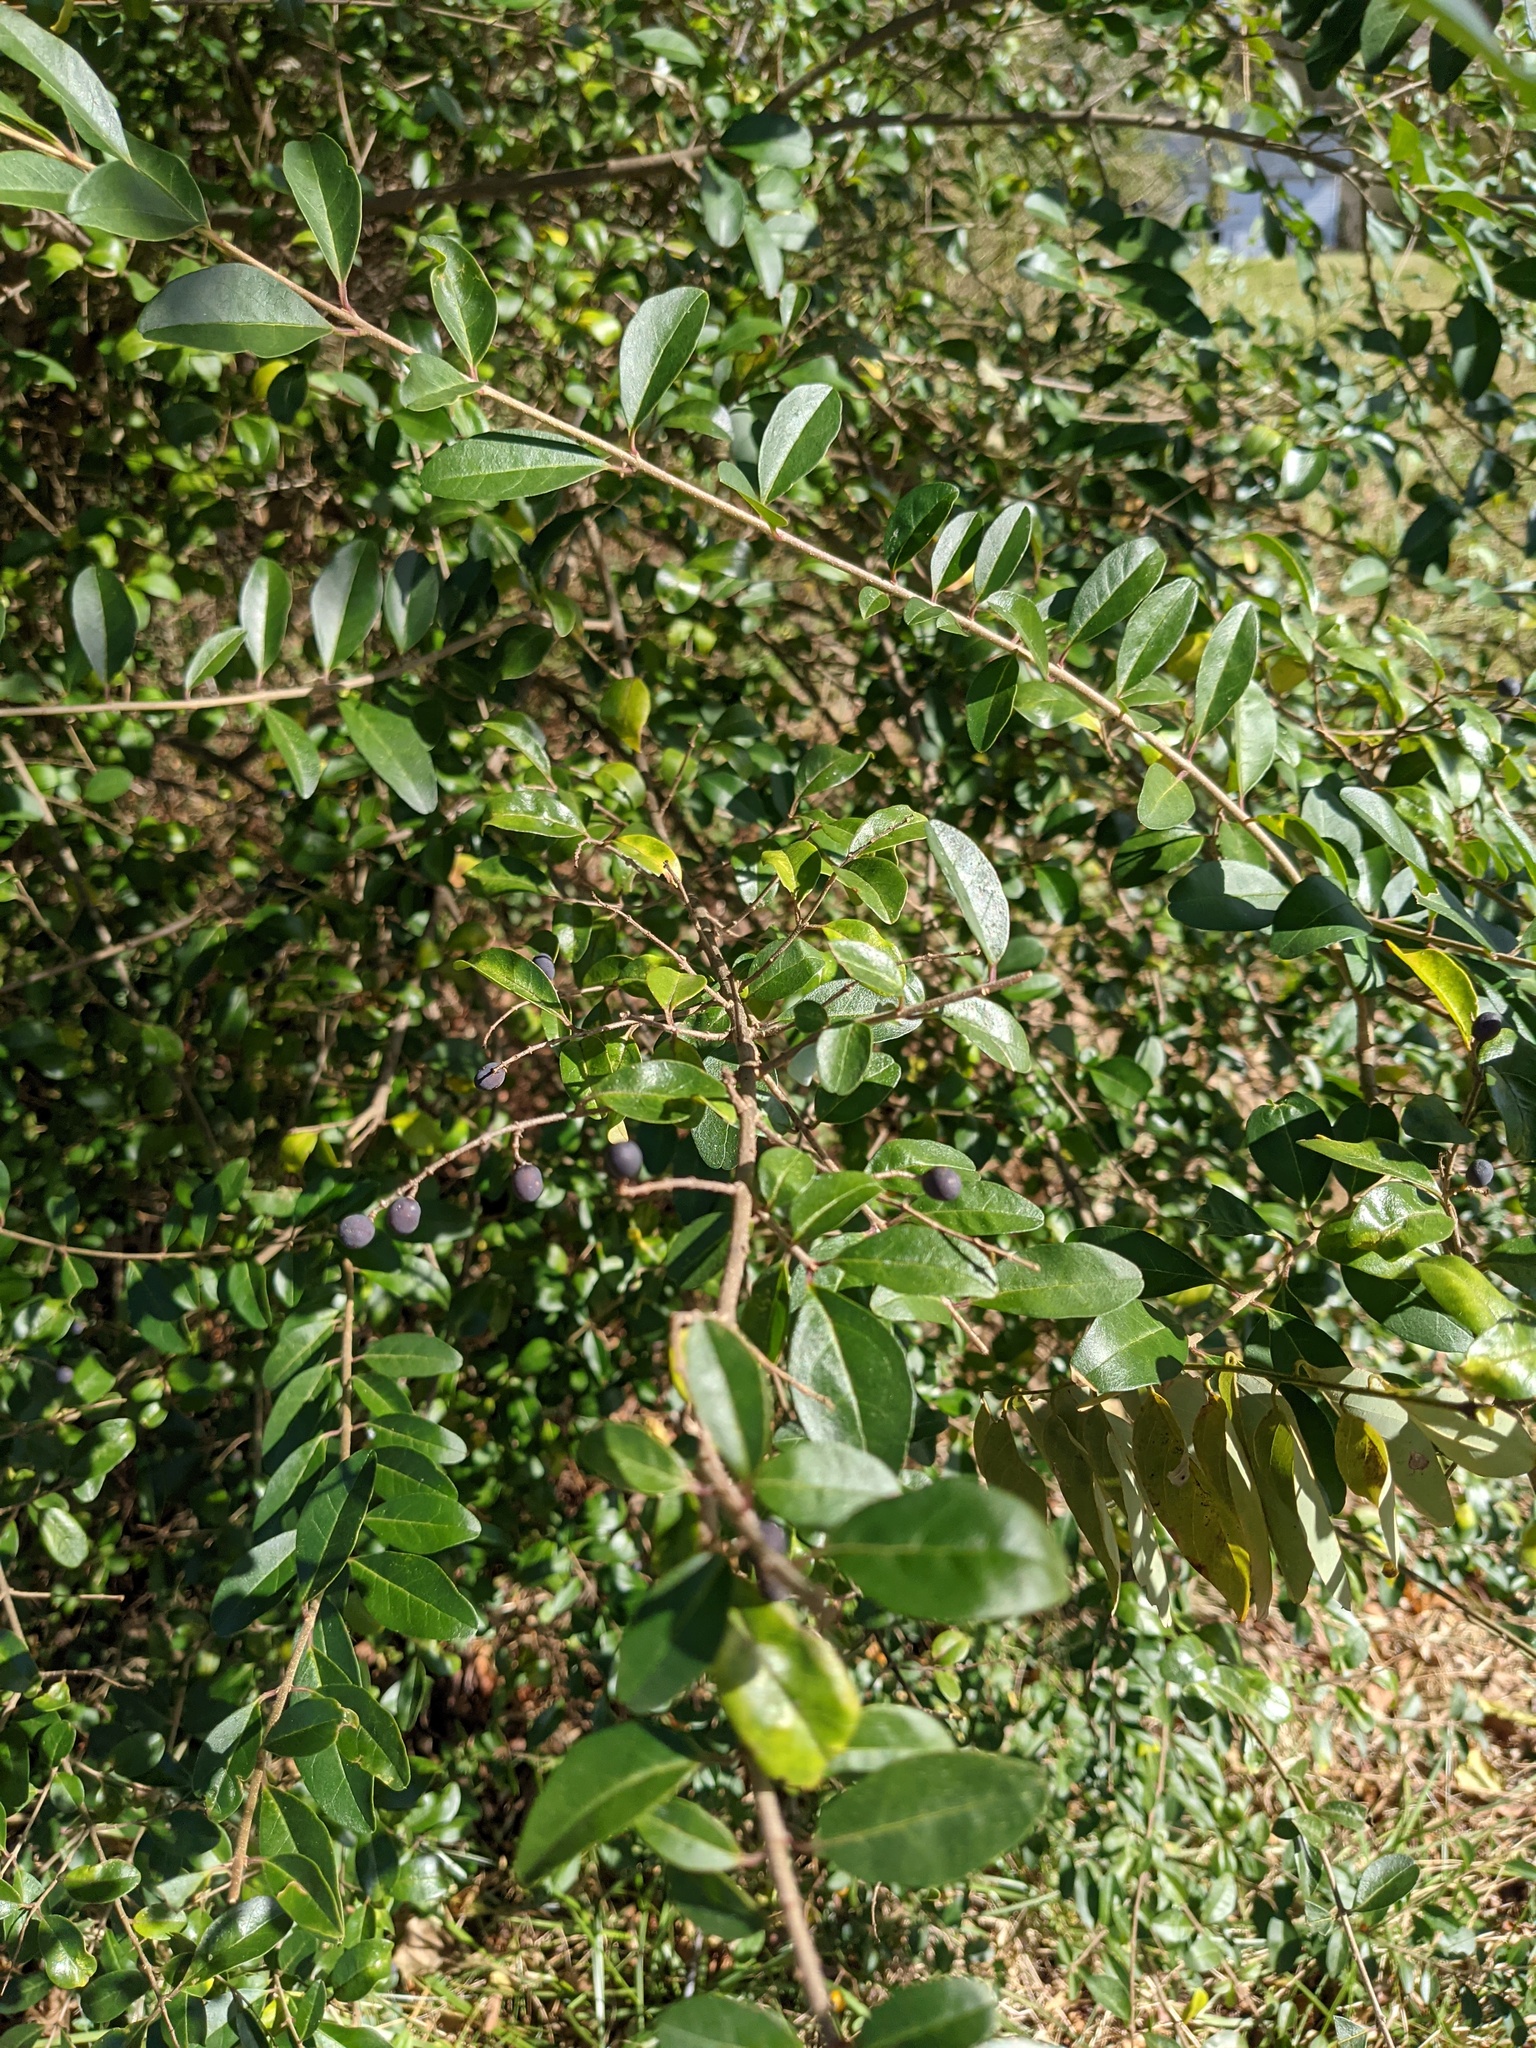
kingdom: Plantae
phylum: Tracheophyta
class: Magnoliopsida
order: Lamiales
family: Oleaceae
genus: Ligustrum
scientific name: Ligustrum sinense
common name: Chinese privet
